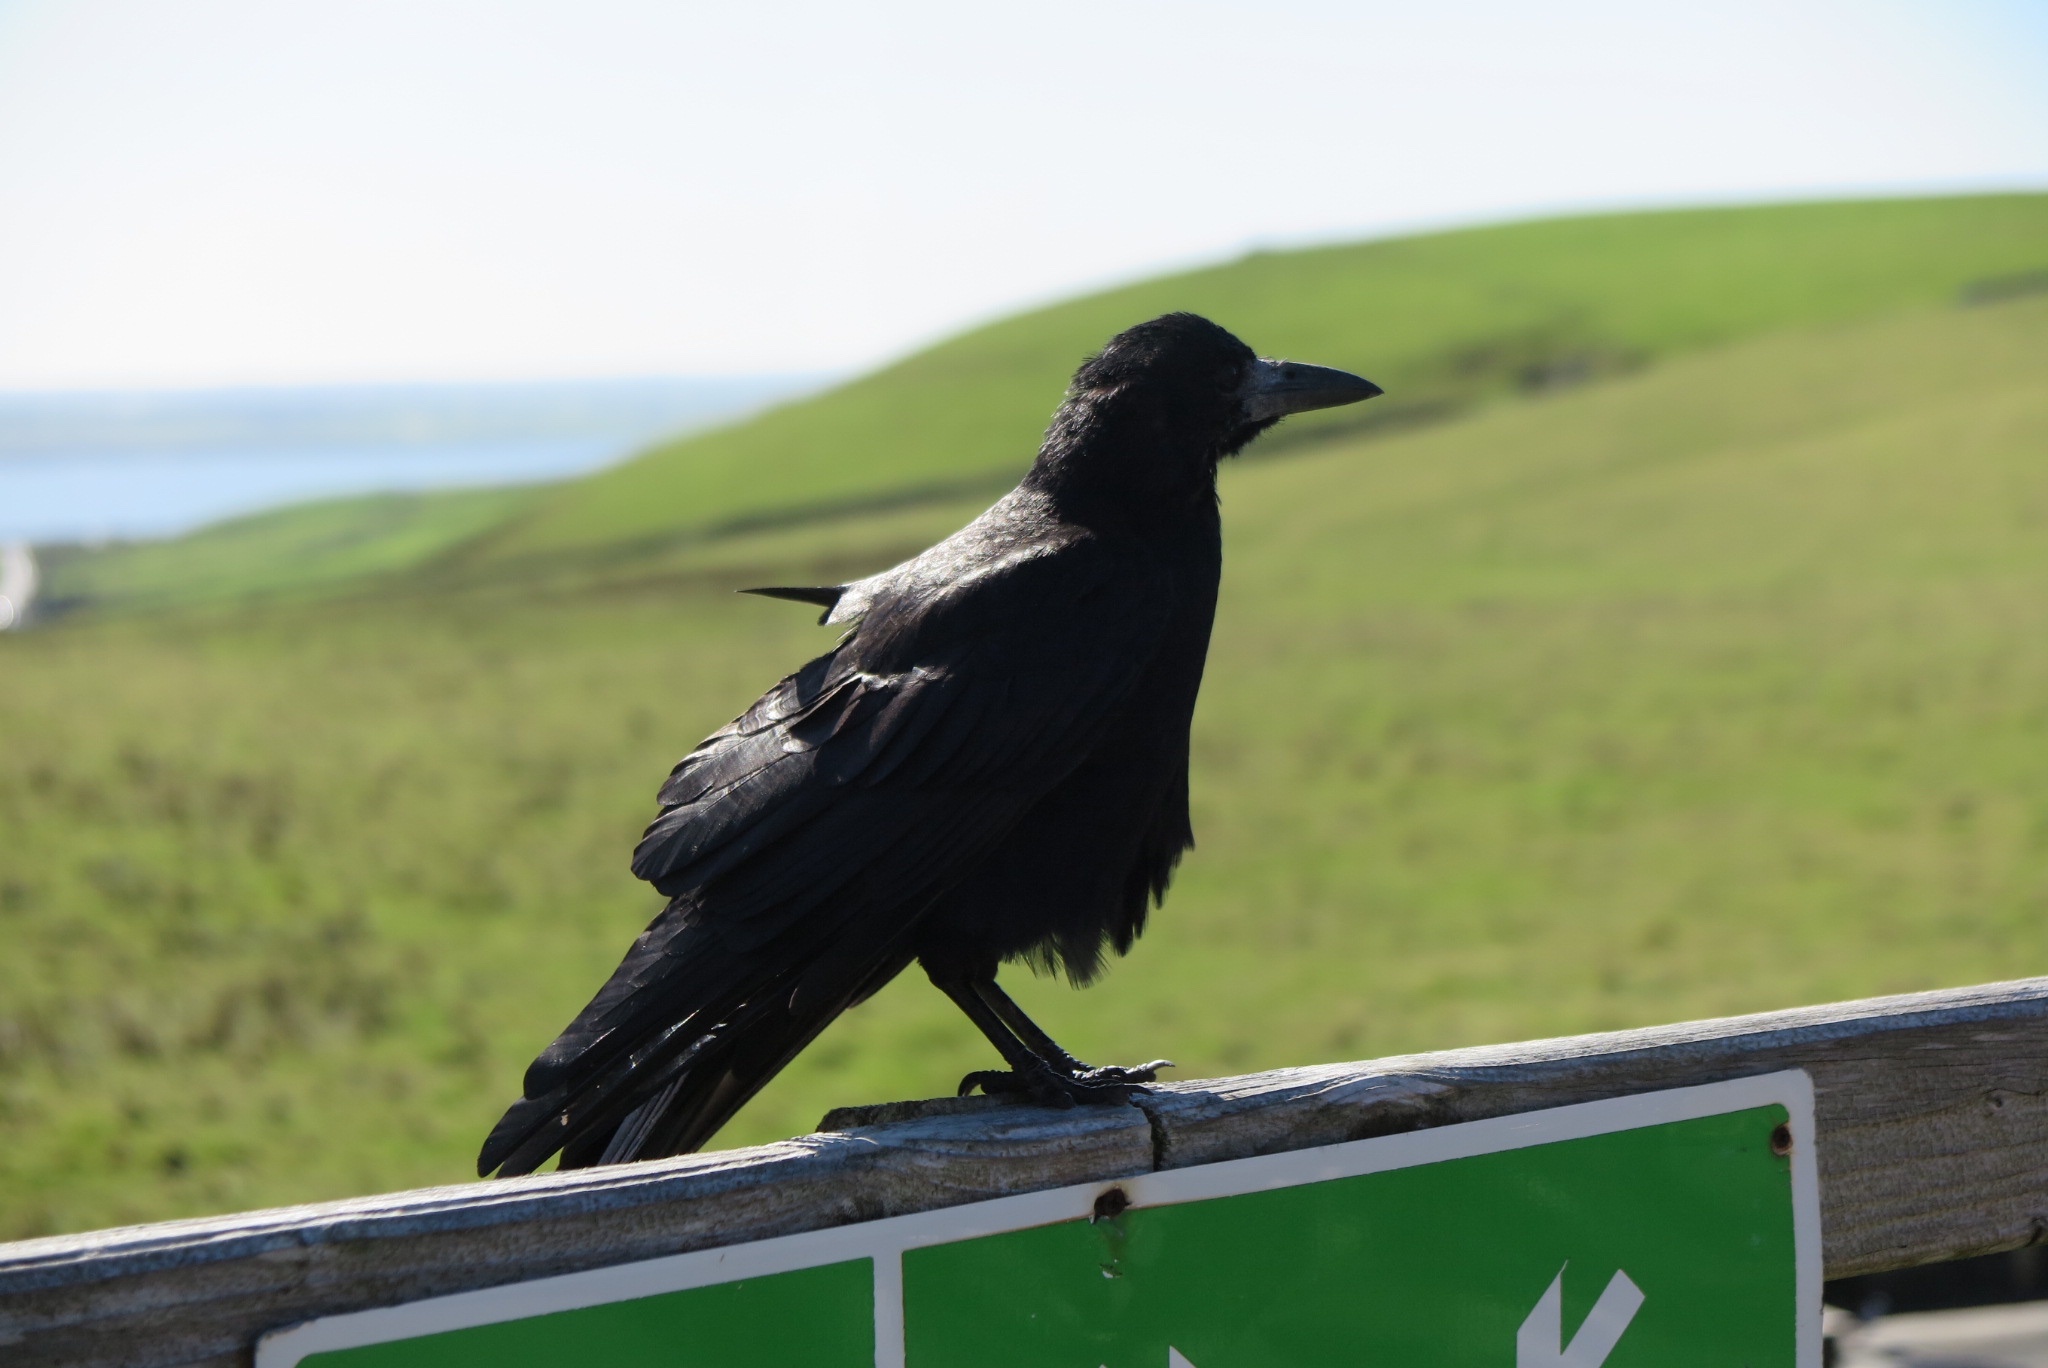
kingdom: Animalia
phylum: Chordata
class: Aves
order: Passeriformes
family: Corvidae
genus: Corvus
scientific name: Corvus frugilegus
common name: Rook
